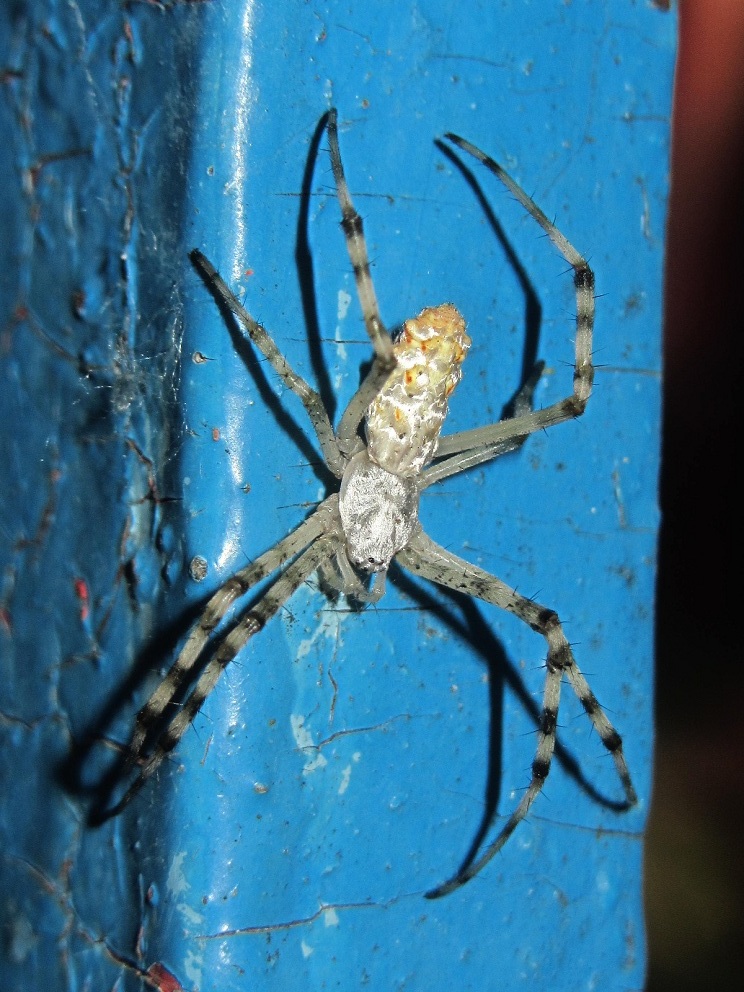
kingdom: Animalia
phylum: Arthropoda
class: Arachnida
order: Araneae
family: Araneidae
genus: Argiope
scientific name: Argiope lobata
